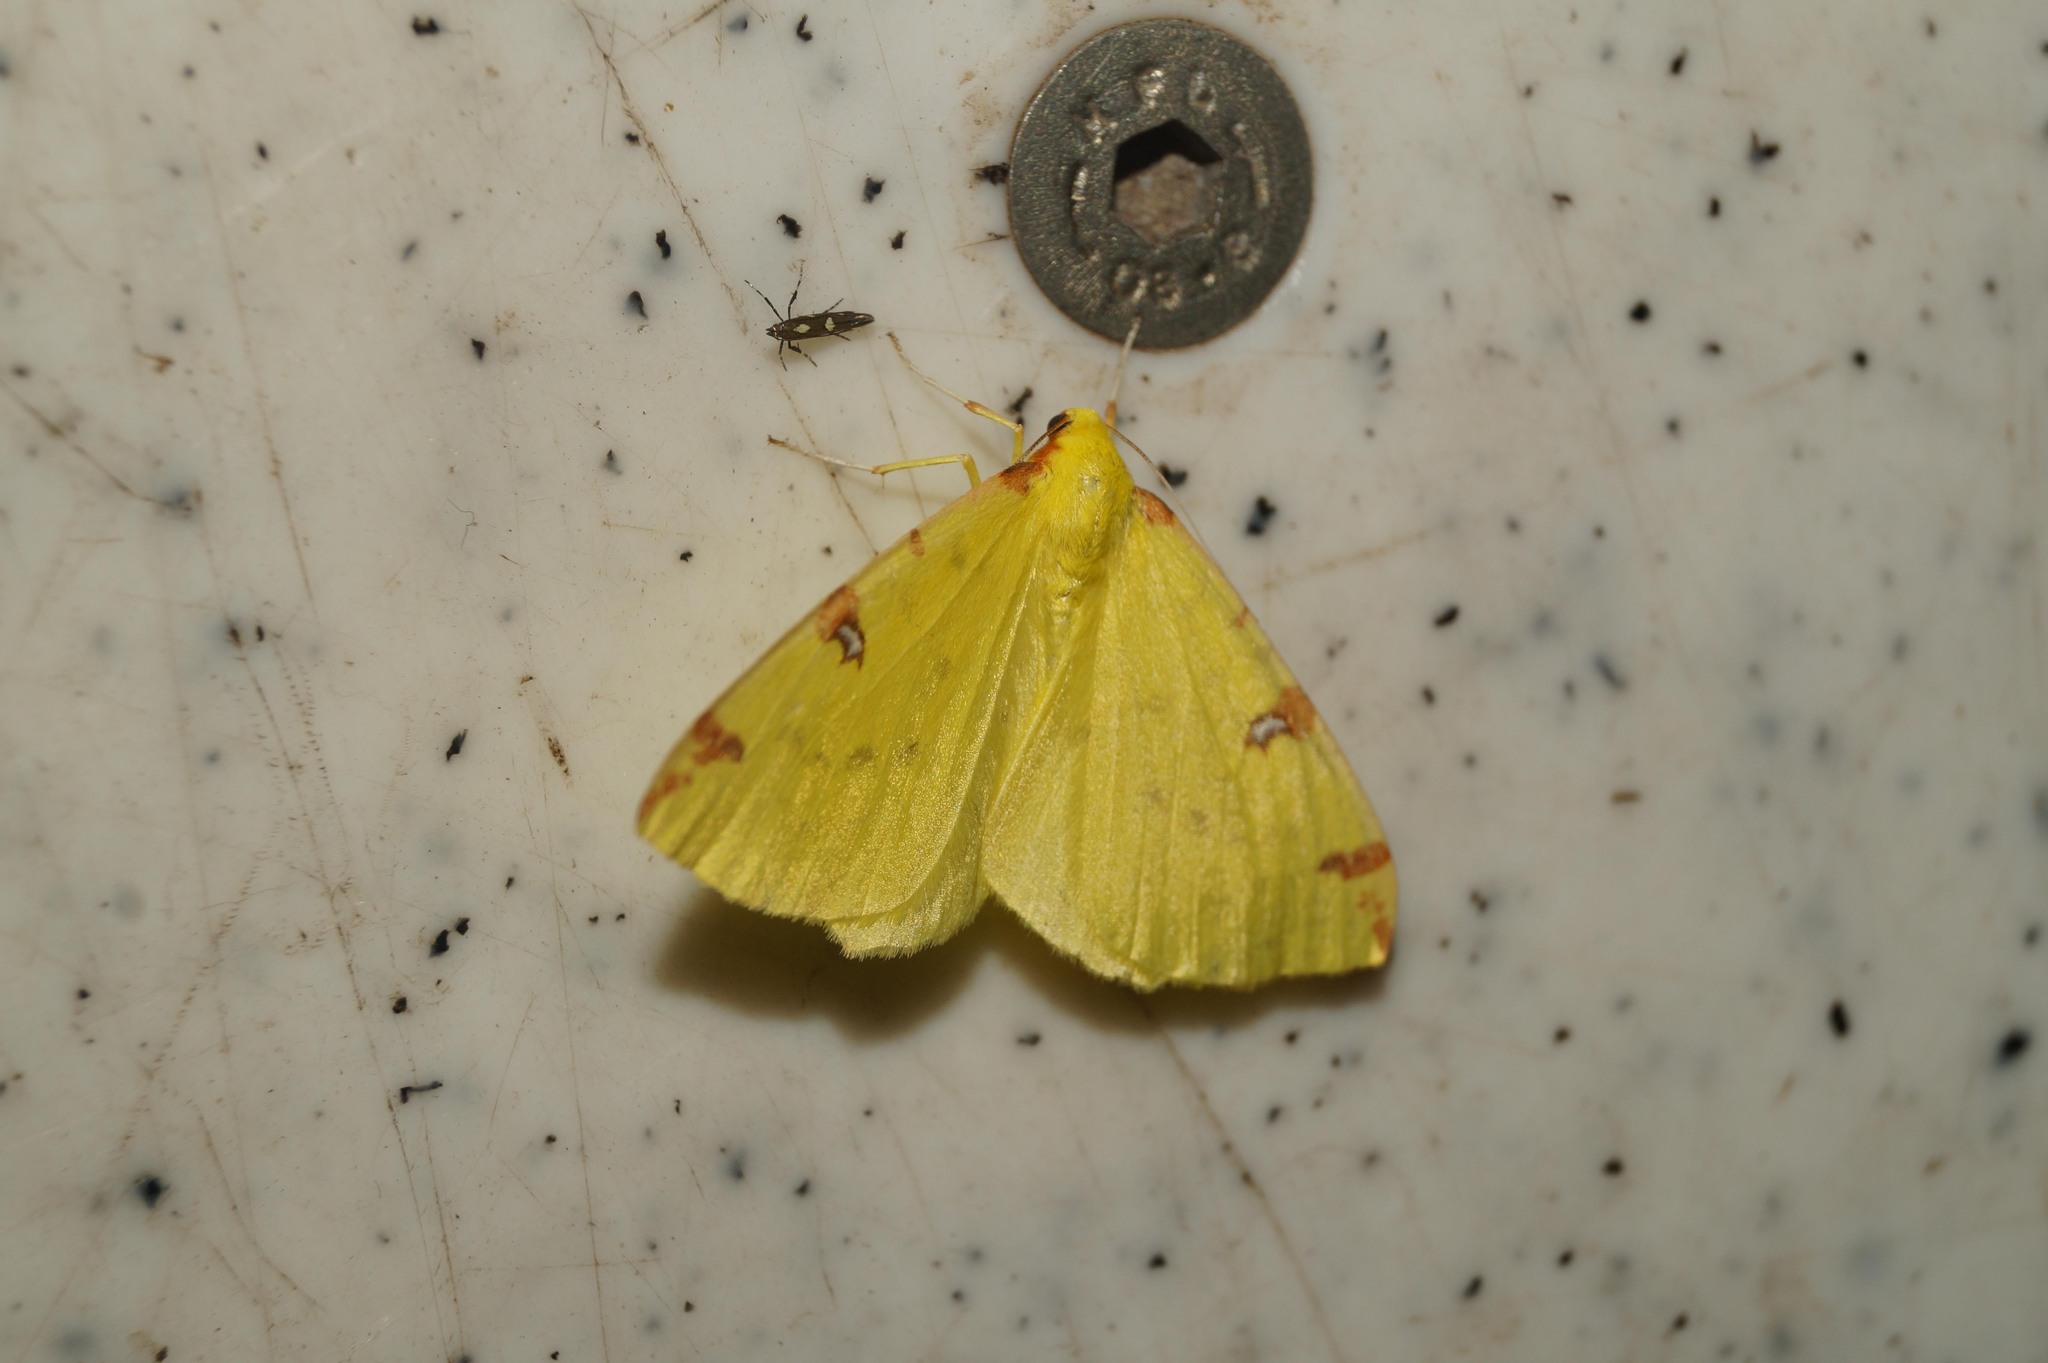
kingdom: Animalia
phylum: Arthropoda
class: Insecta
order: Lepidoptera
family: Geometridae
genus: Opisthograptis
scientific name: Opisthograptis luteolata
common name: Brimstone moth
